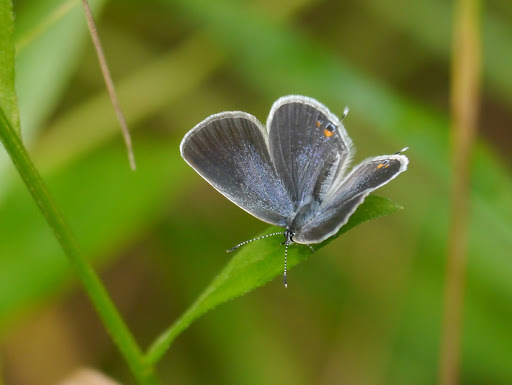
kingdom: Animalia
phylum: Arthropoda
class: Insecta
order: Lepidoptera
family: Lycaenidae
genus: Elkalyce
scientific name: Elkalyce comyntas
